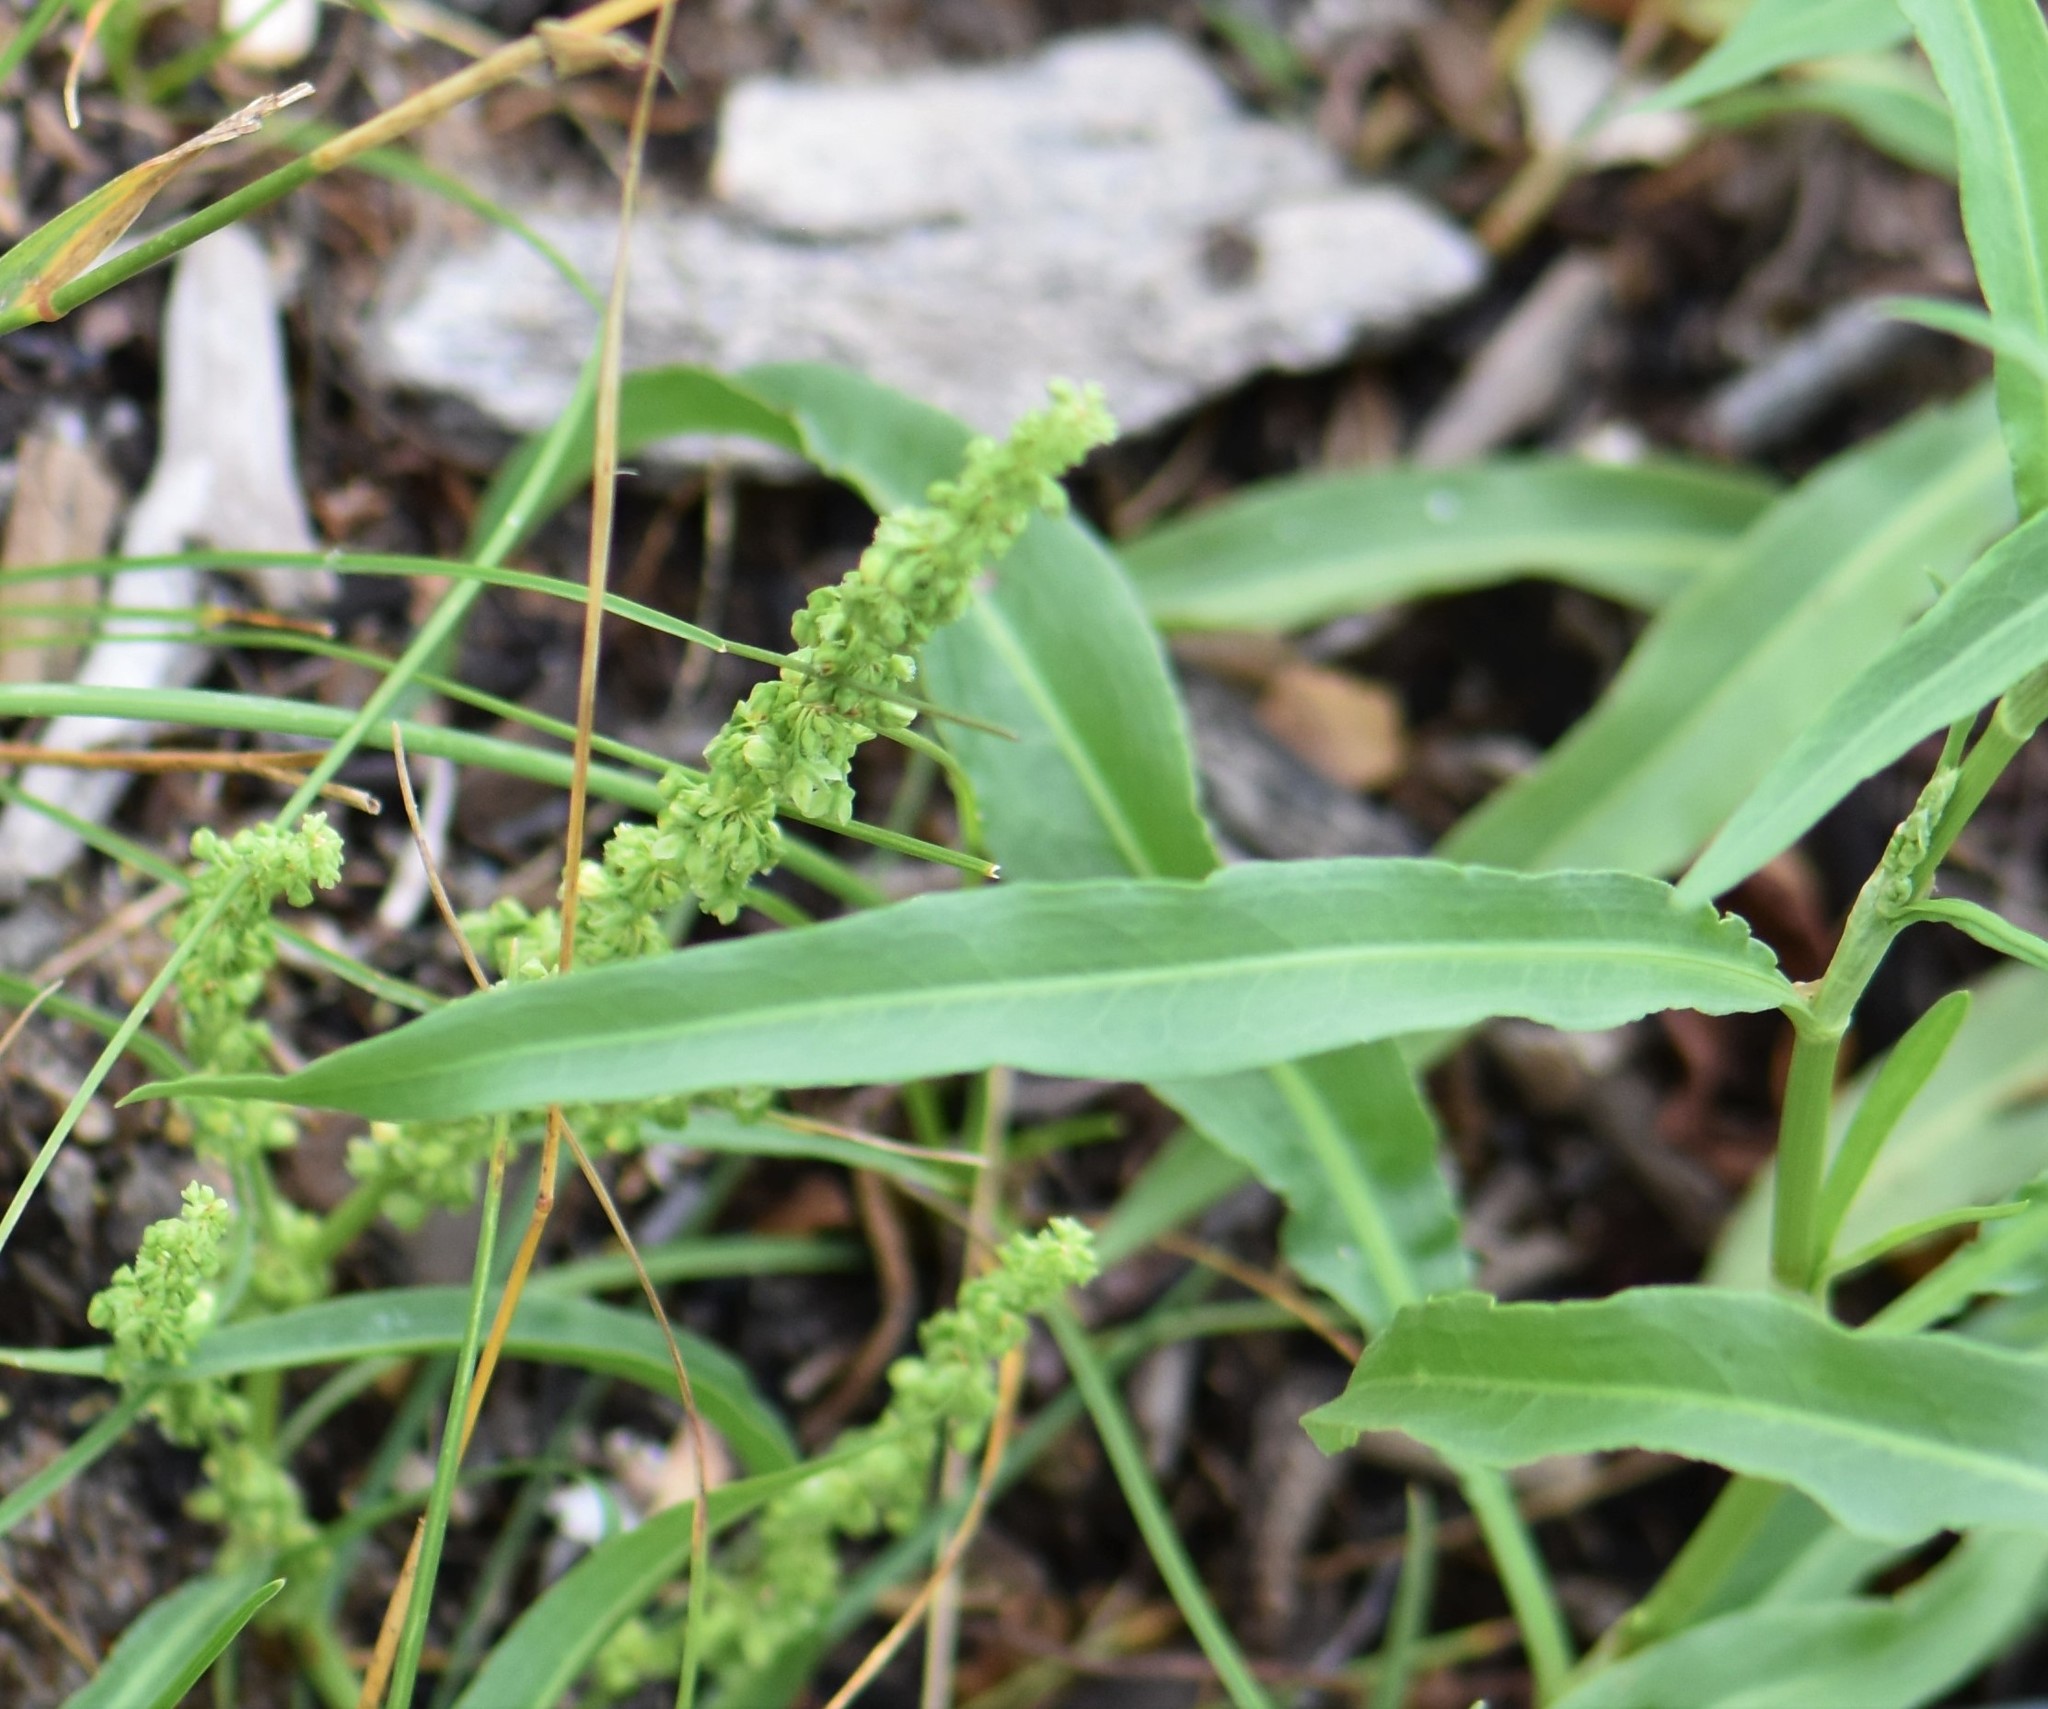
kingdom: Plantae
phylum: Tracheophyta
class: Magnoliopsida
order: Caryophyllales
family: Polygonaceae
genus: Rumex
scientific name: Rumex triangulivalvis
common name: Triangular-valve dock
